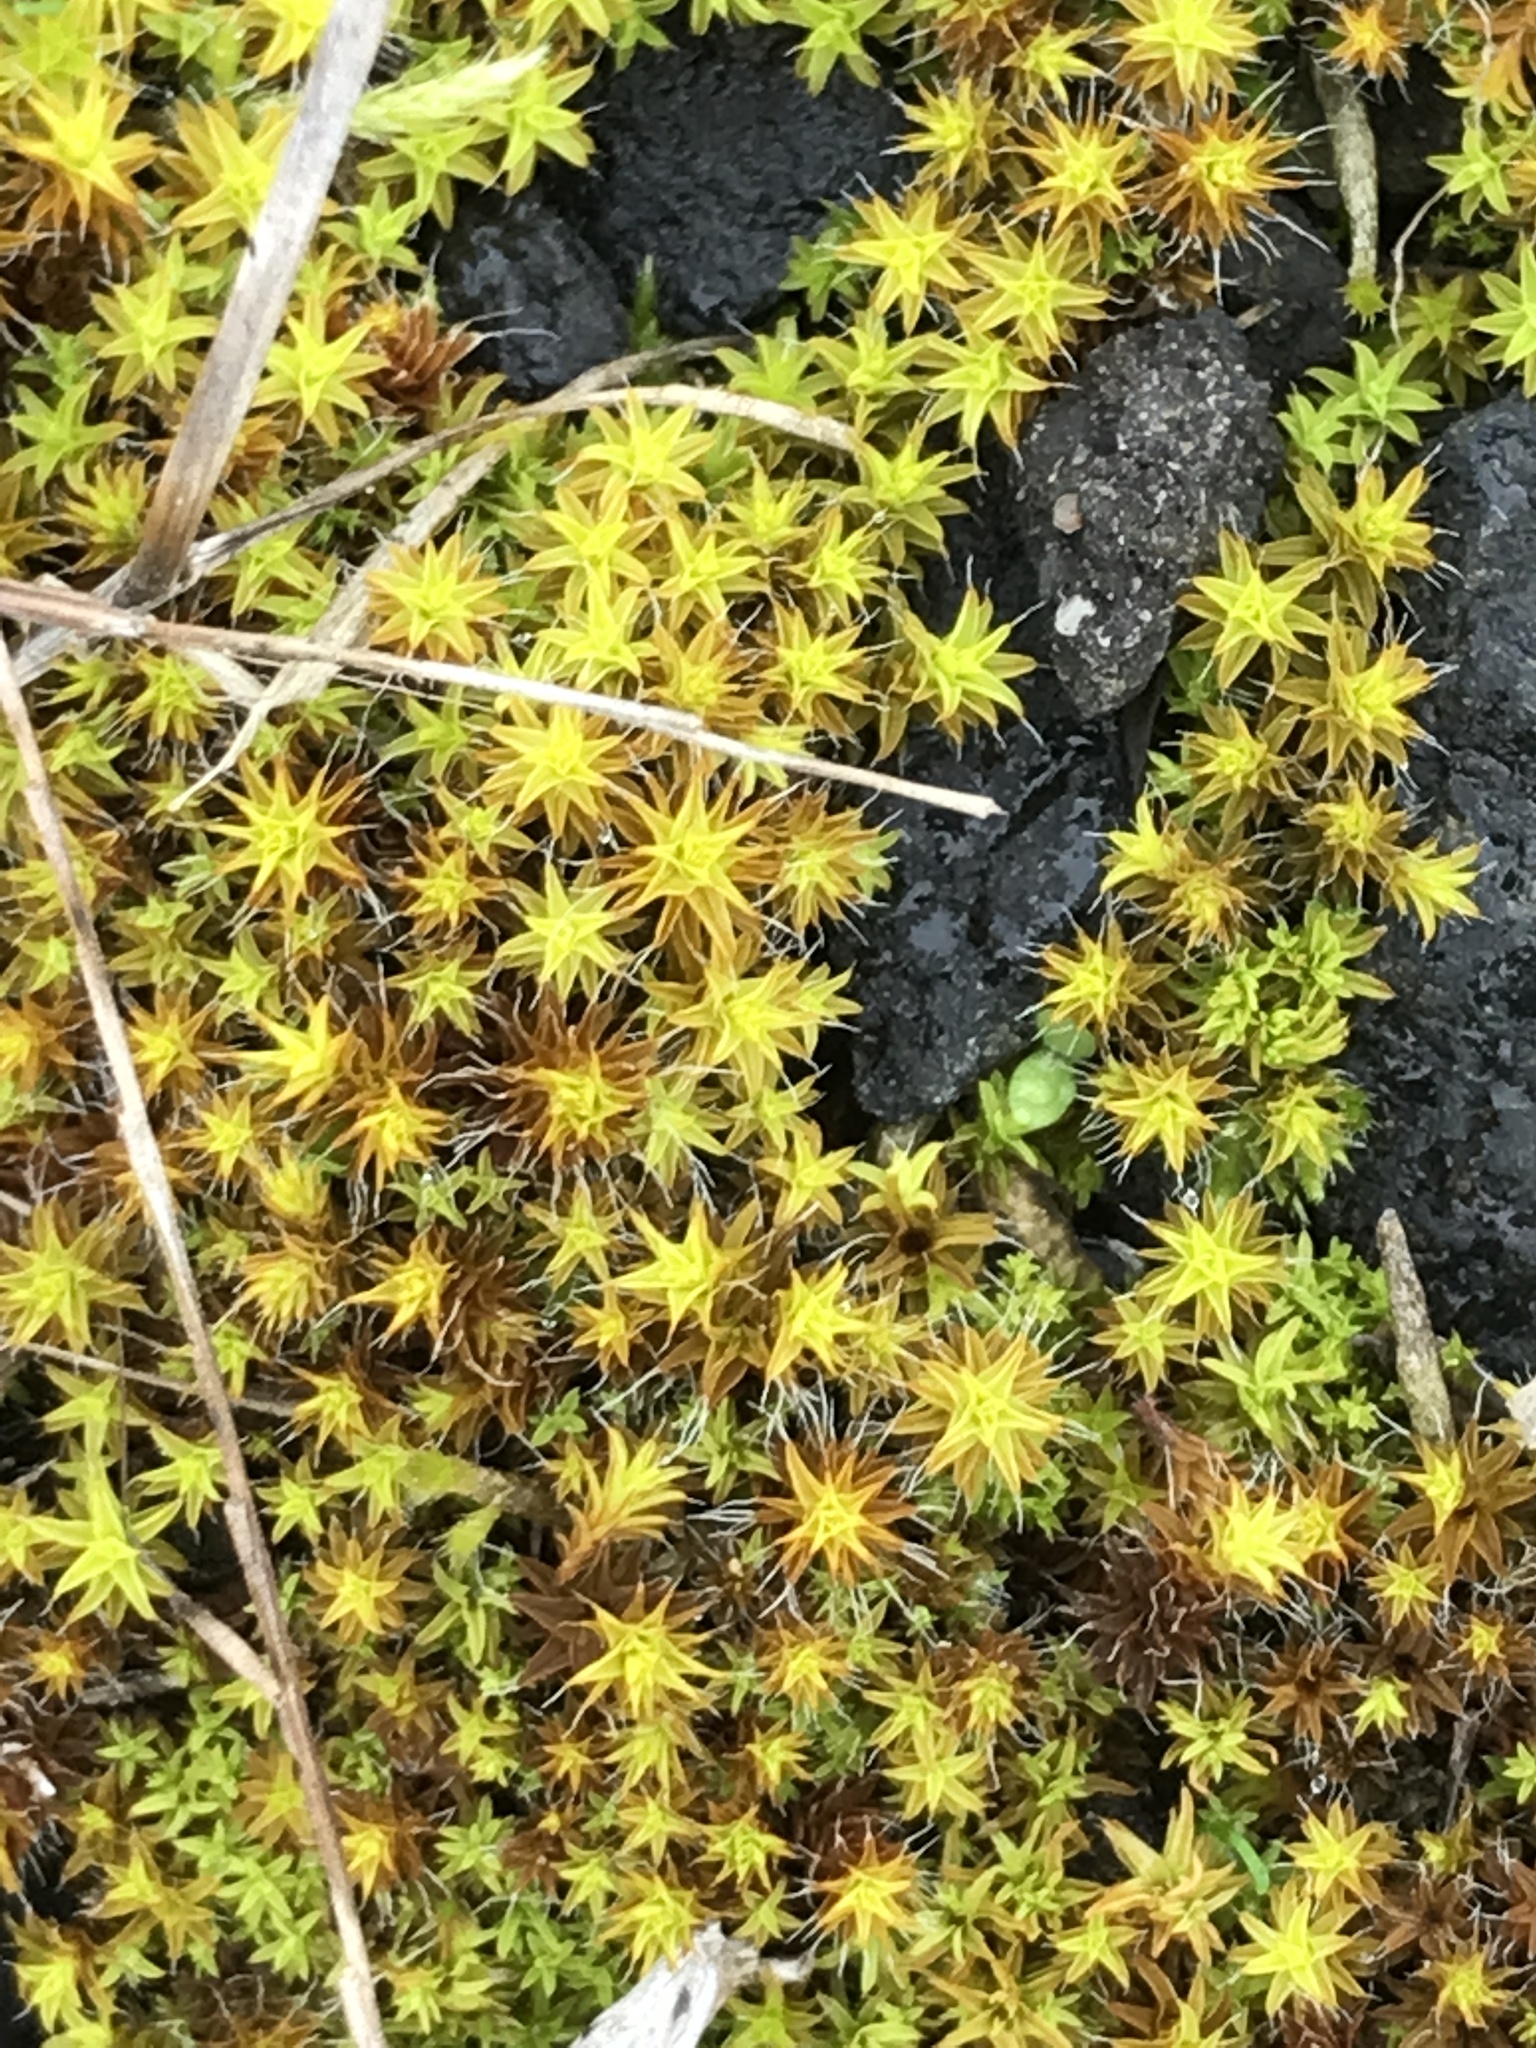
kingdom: Plantae
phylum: Bryophyta
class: Bryopsida
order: Pottiales
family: Pottiaceae
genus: Syntrichia
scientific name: Syntrichia ruralis
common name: Sidewalk screw moss
